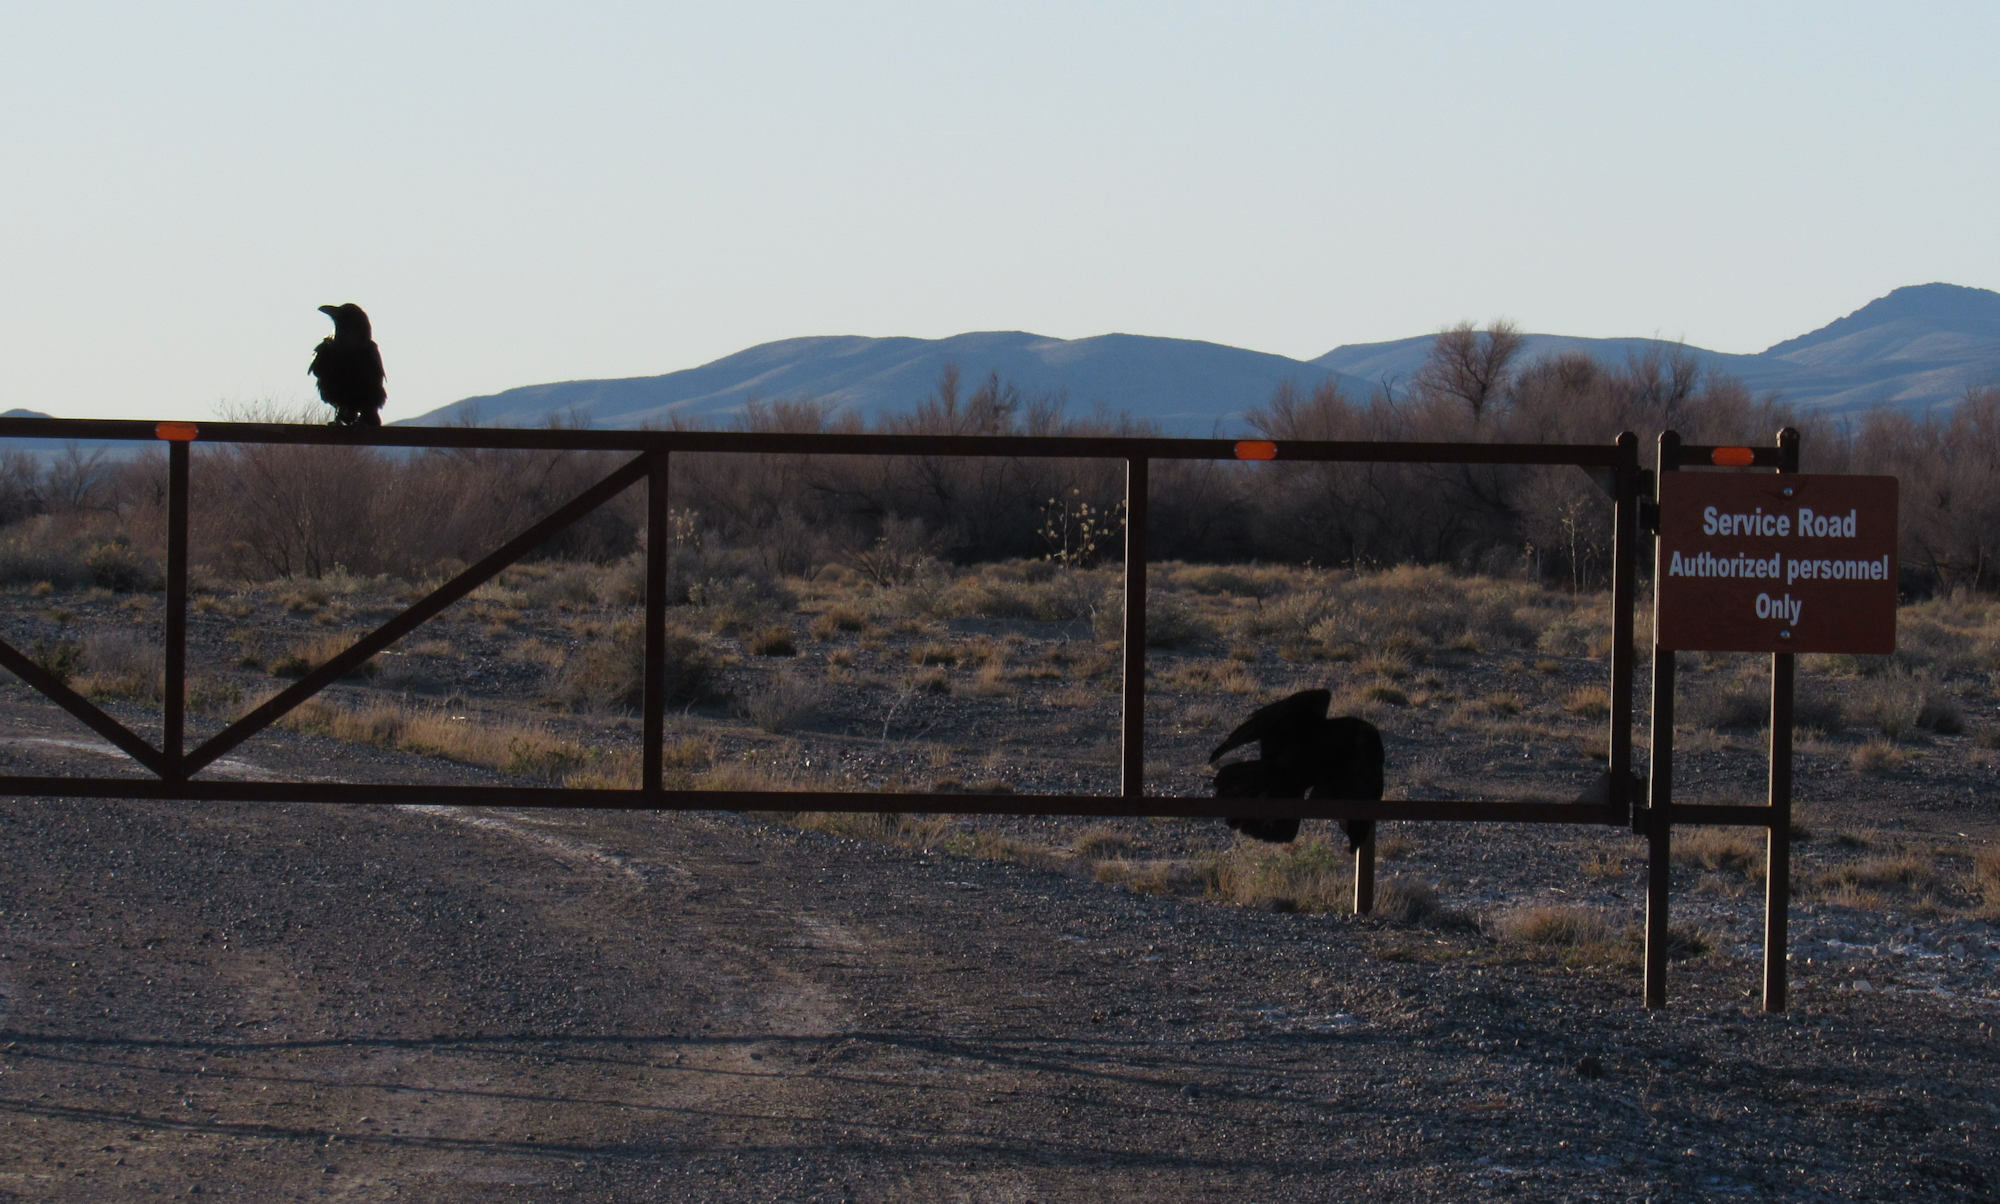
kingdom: Animalia
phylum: Chordata
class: Aves
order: Passeriformes
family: Corvidae
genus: Corvus
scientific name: Corvus corax
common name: Common raven
